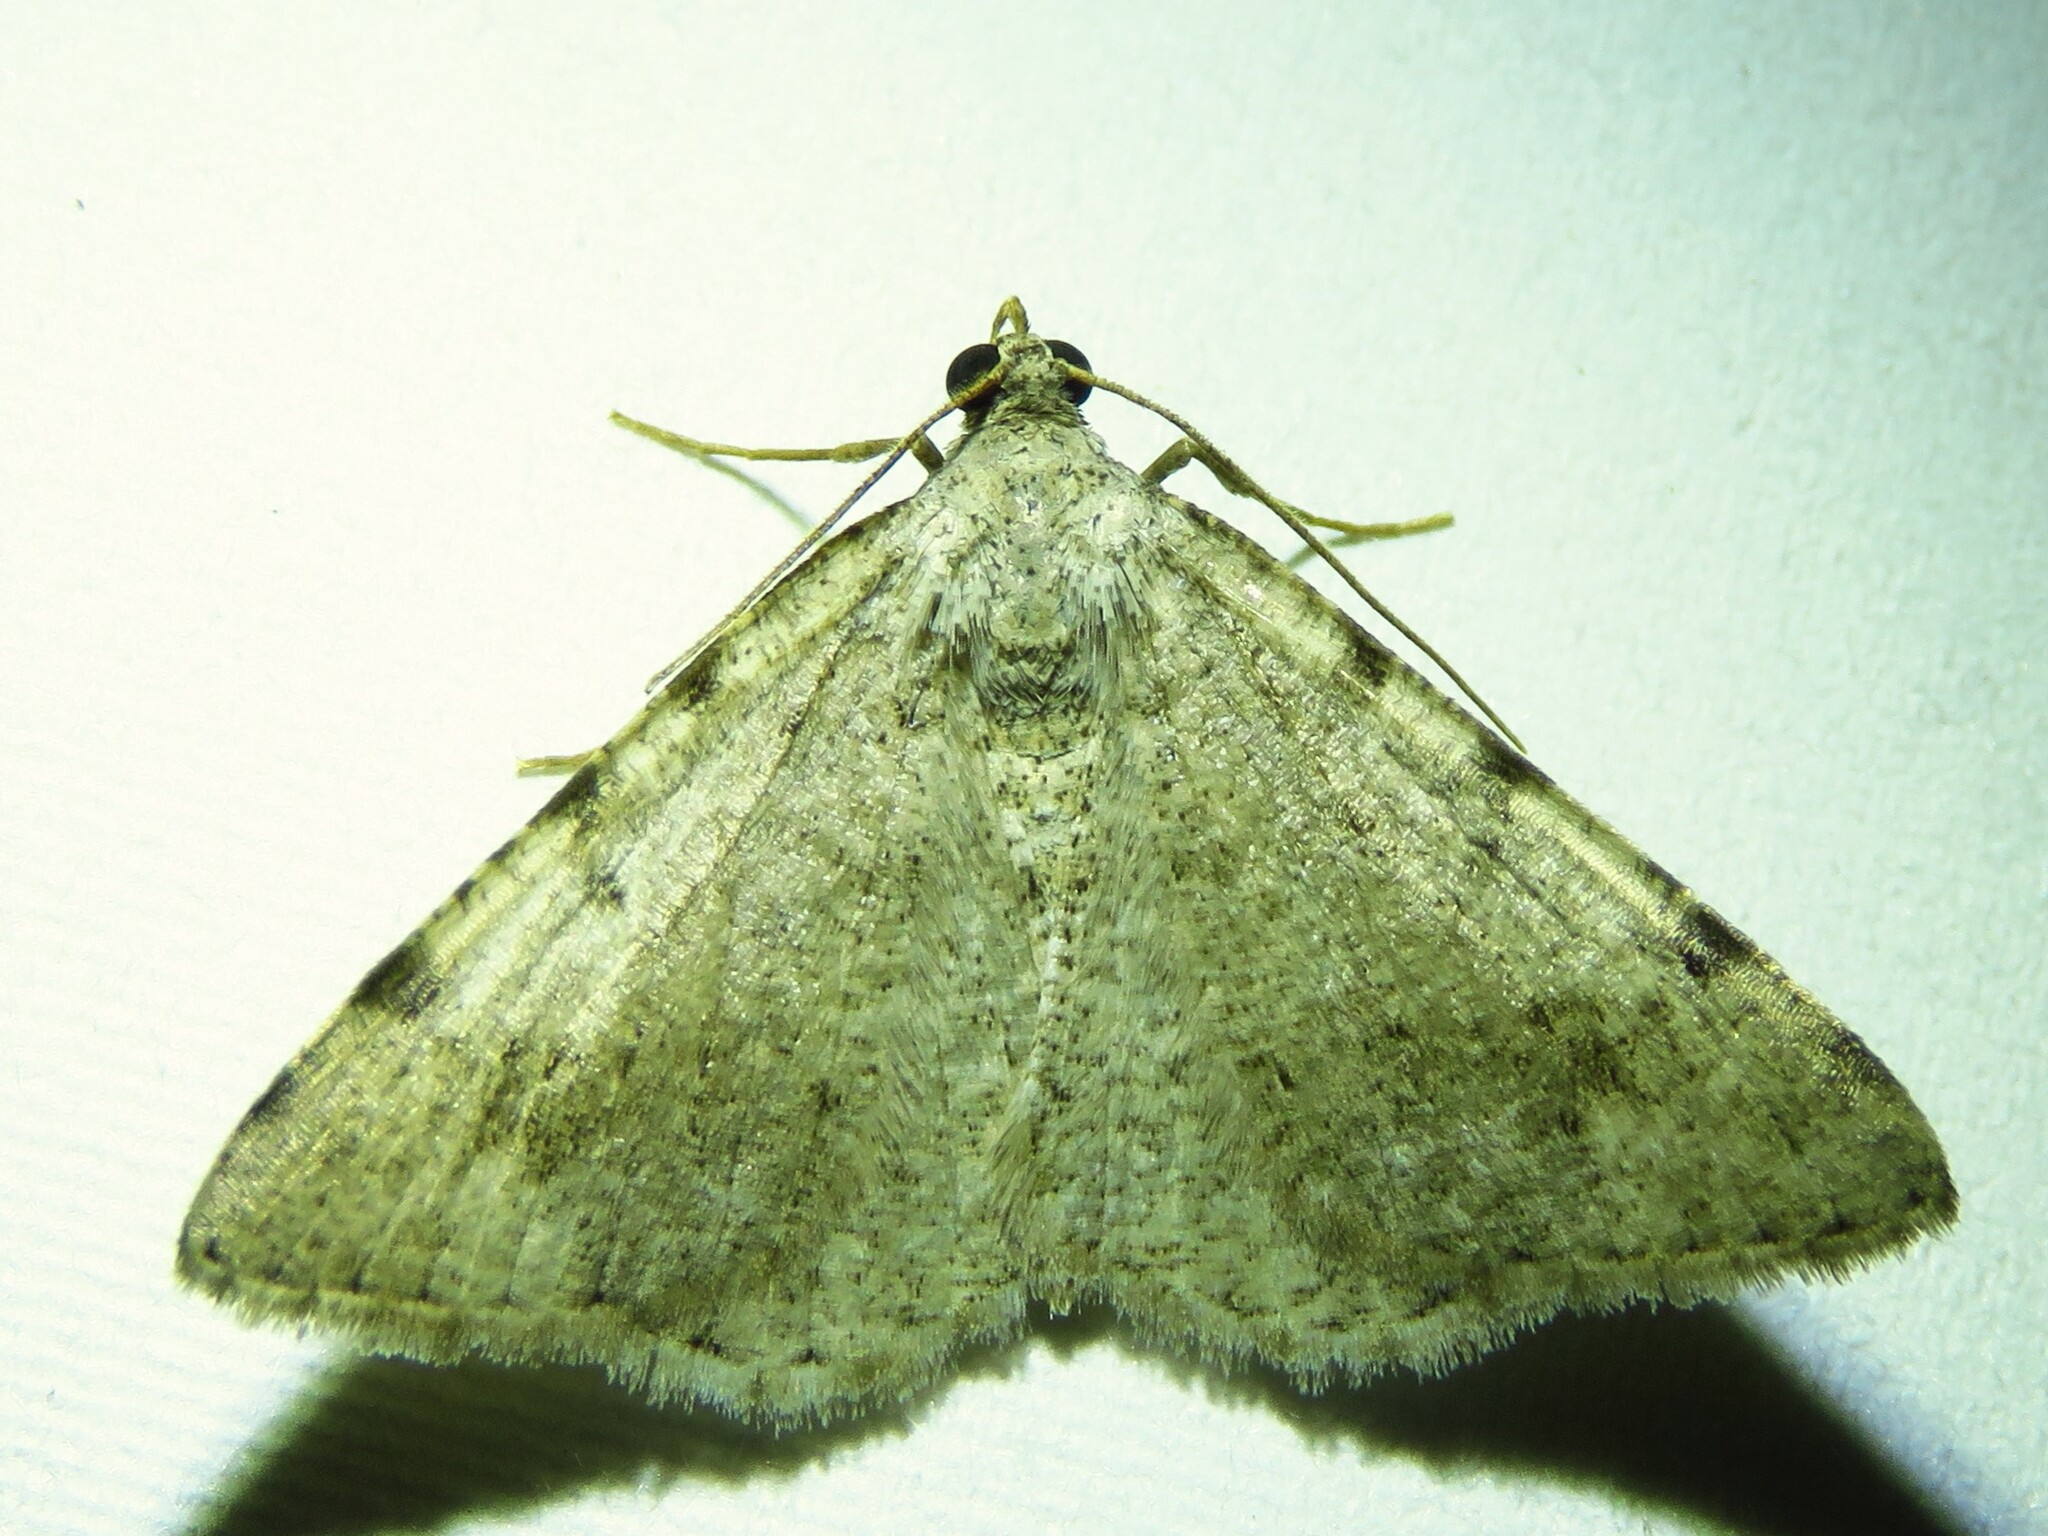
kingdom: Animalia
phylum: Arthropoda
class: Insecta
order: Lepidoptera
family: Geometridae
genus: Digrammia
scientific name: Digrammia pallidata
